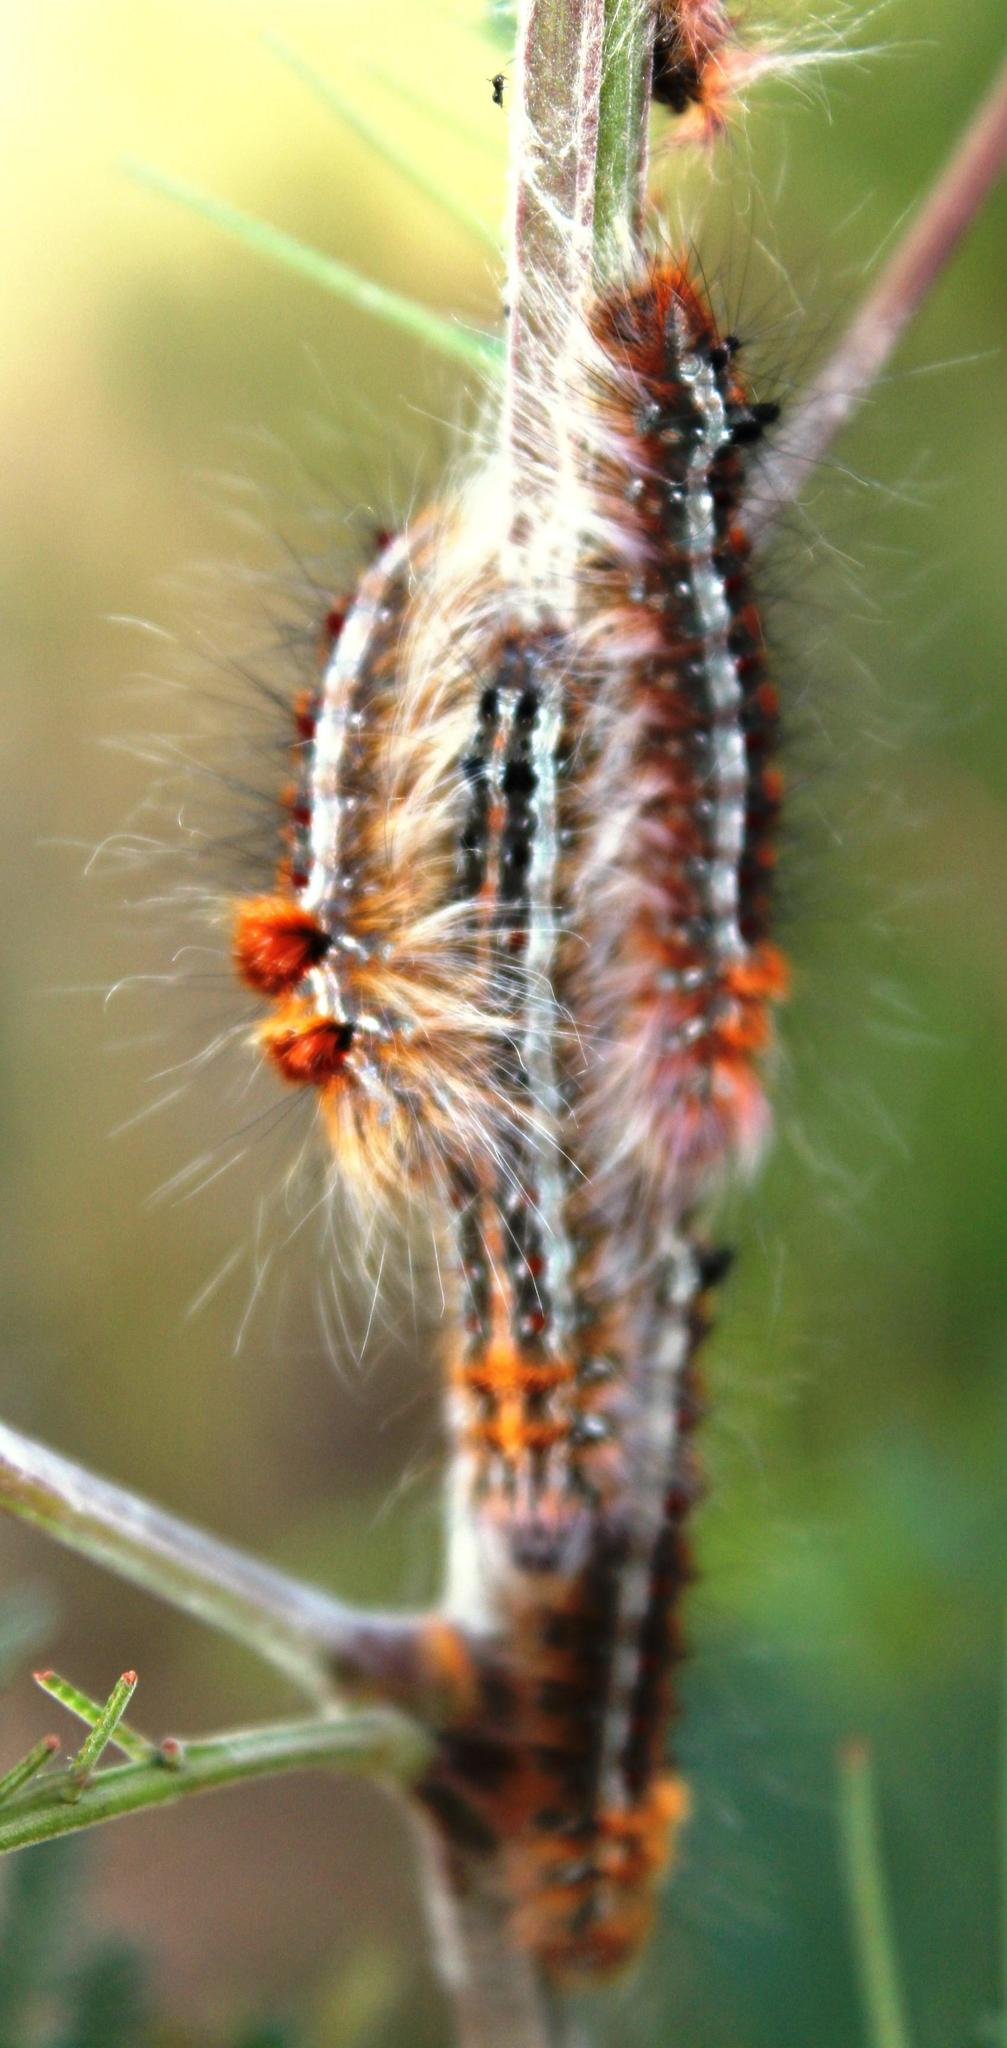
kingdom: Animalia
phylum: Arthropoda
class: Insecta
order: Lepidoptera
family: Lasiocampidae
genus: Streblote
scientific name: Streblote cristata
